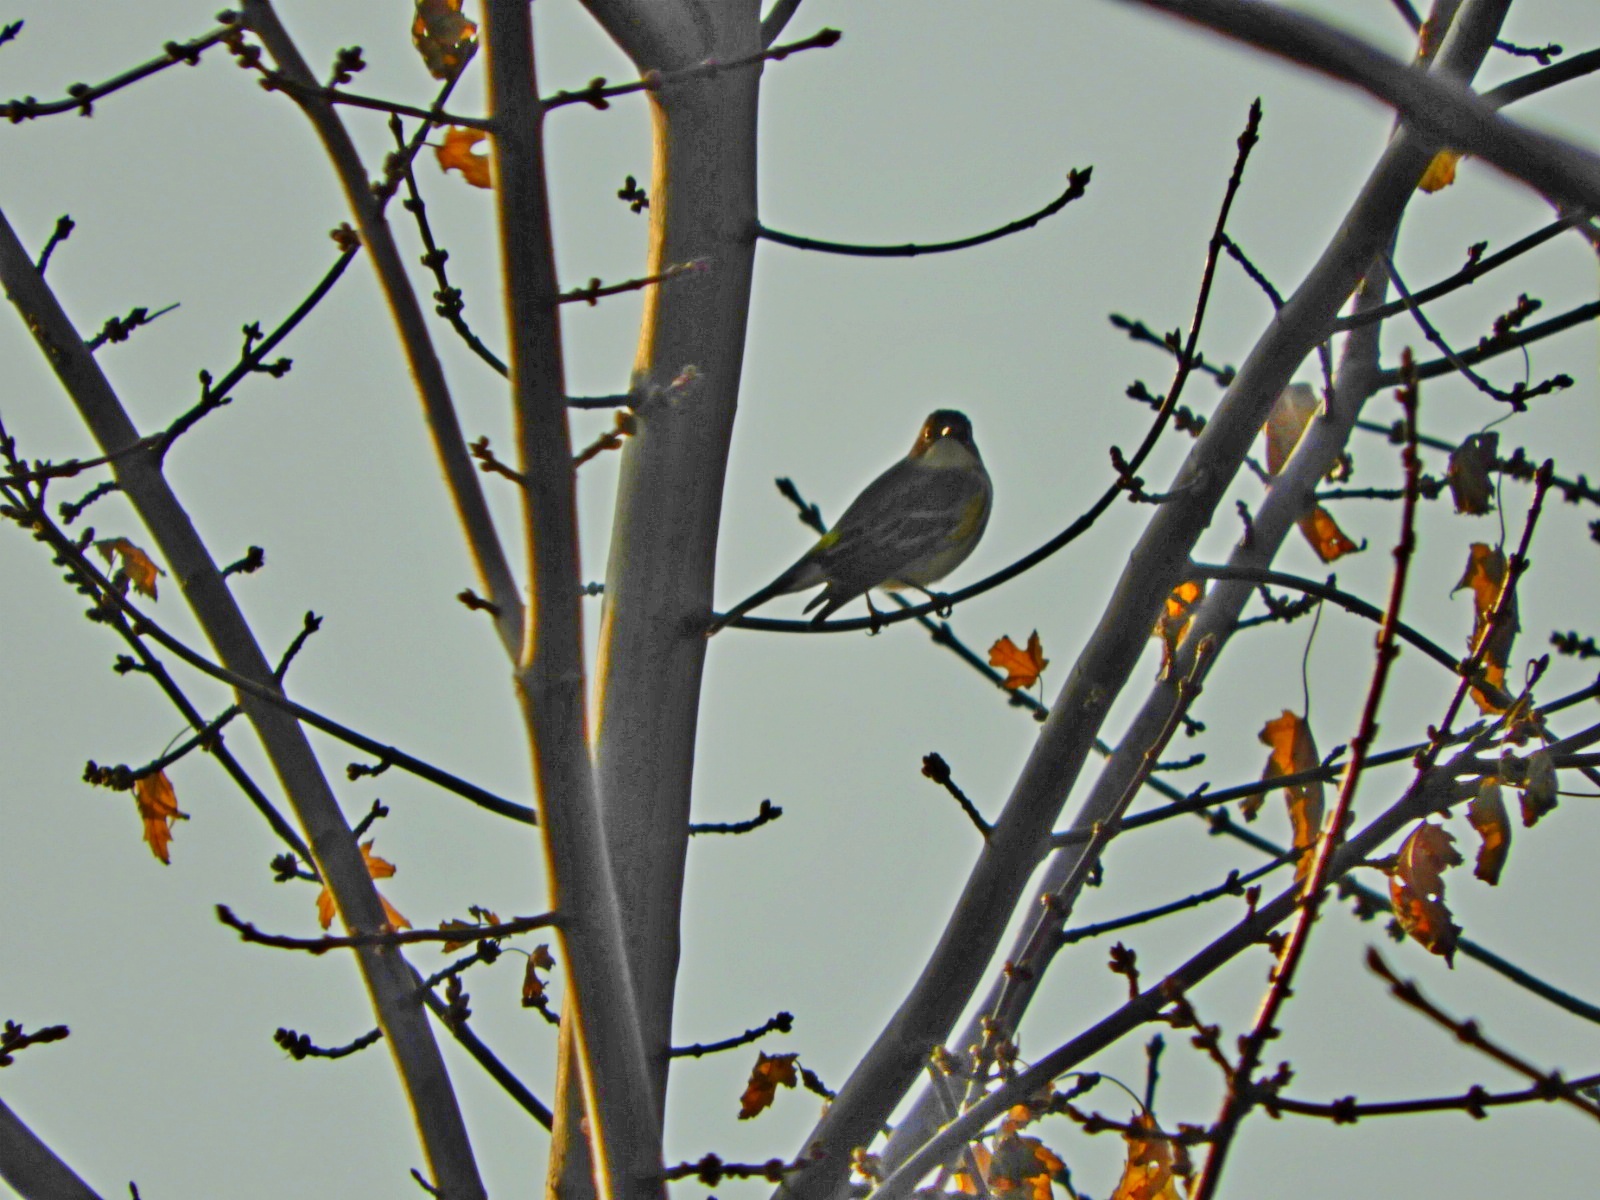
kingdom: Animalia
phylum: Chordata
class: Aves
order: Passeriformes
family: Parulidae
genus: Setophaga
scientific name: Setophaga coronata
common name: Myrtle warbler
